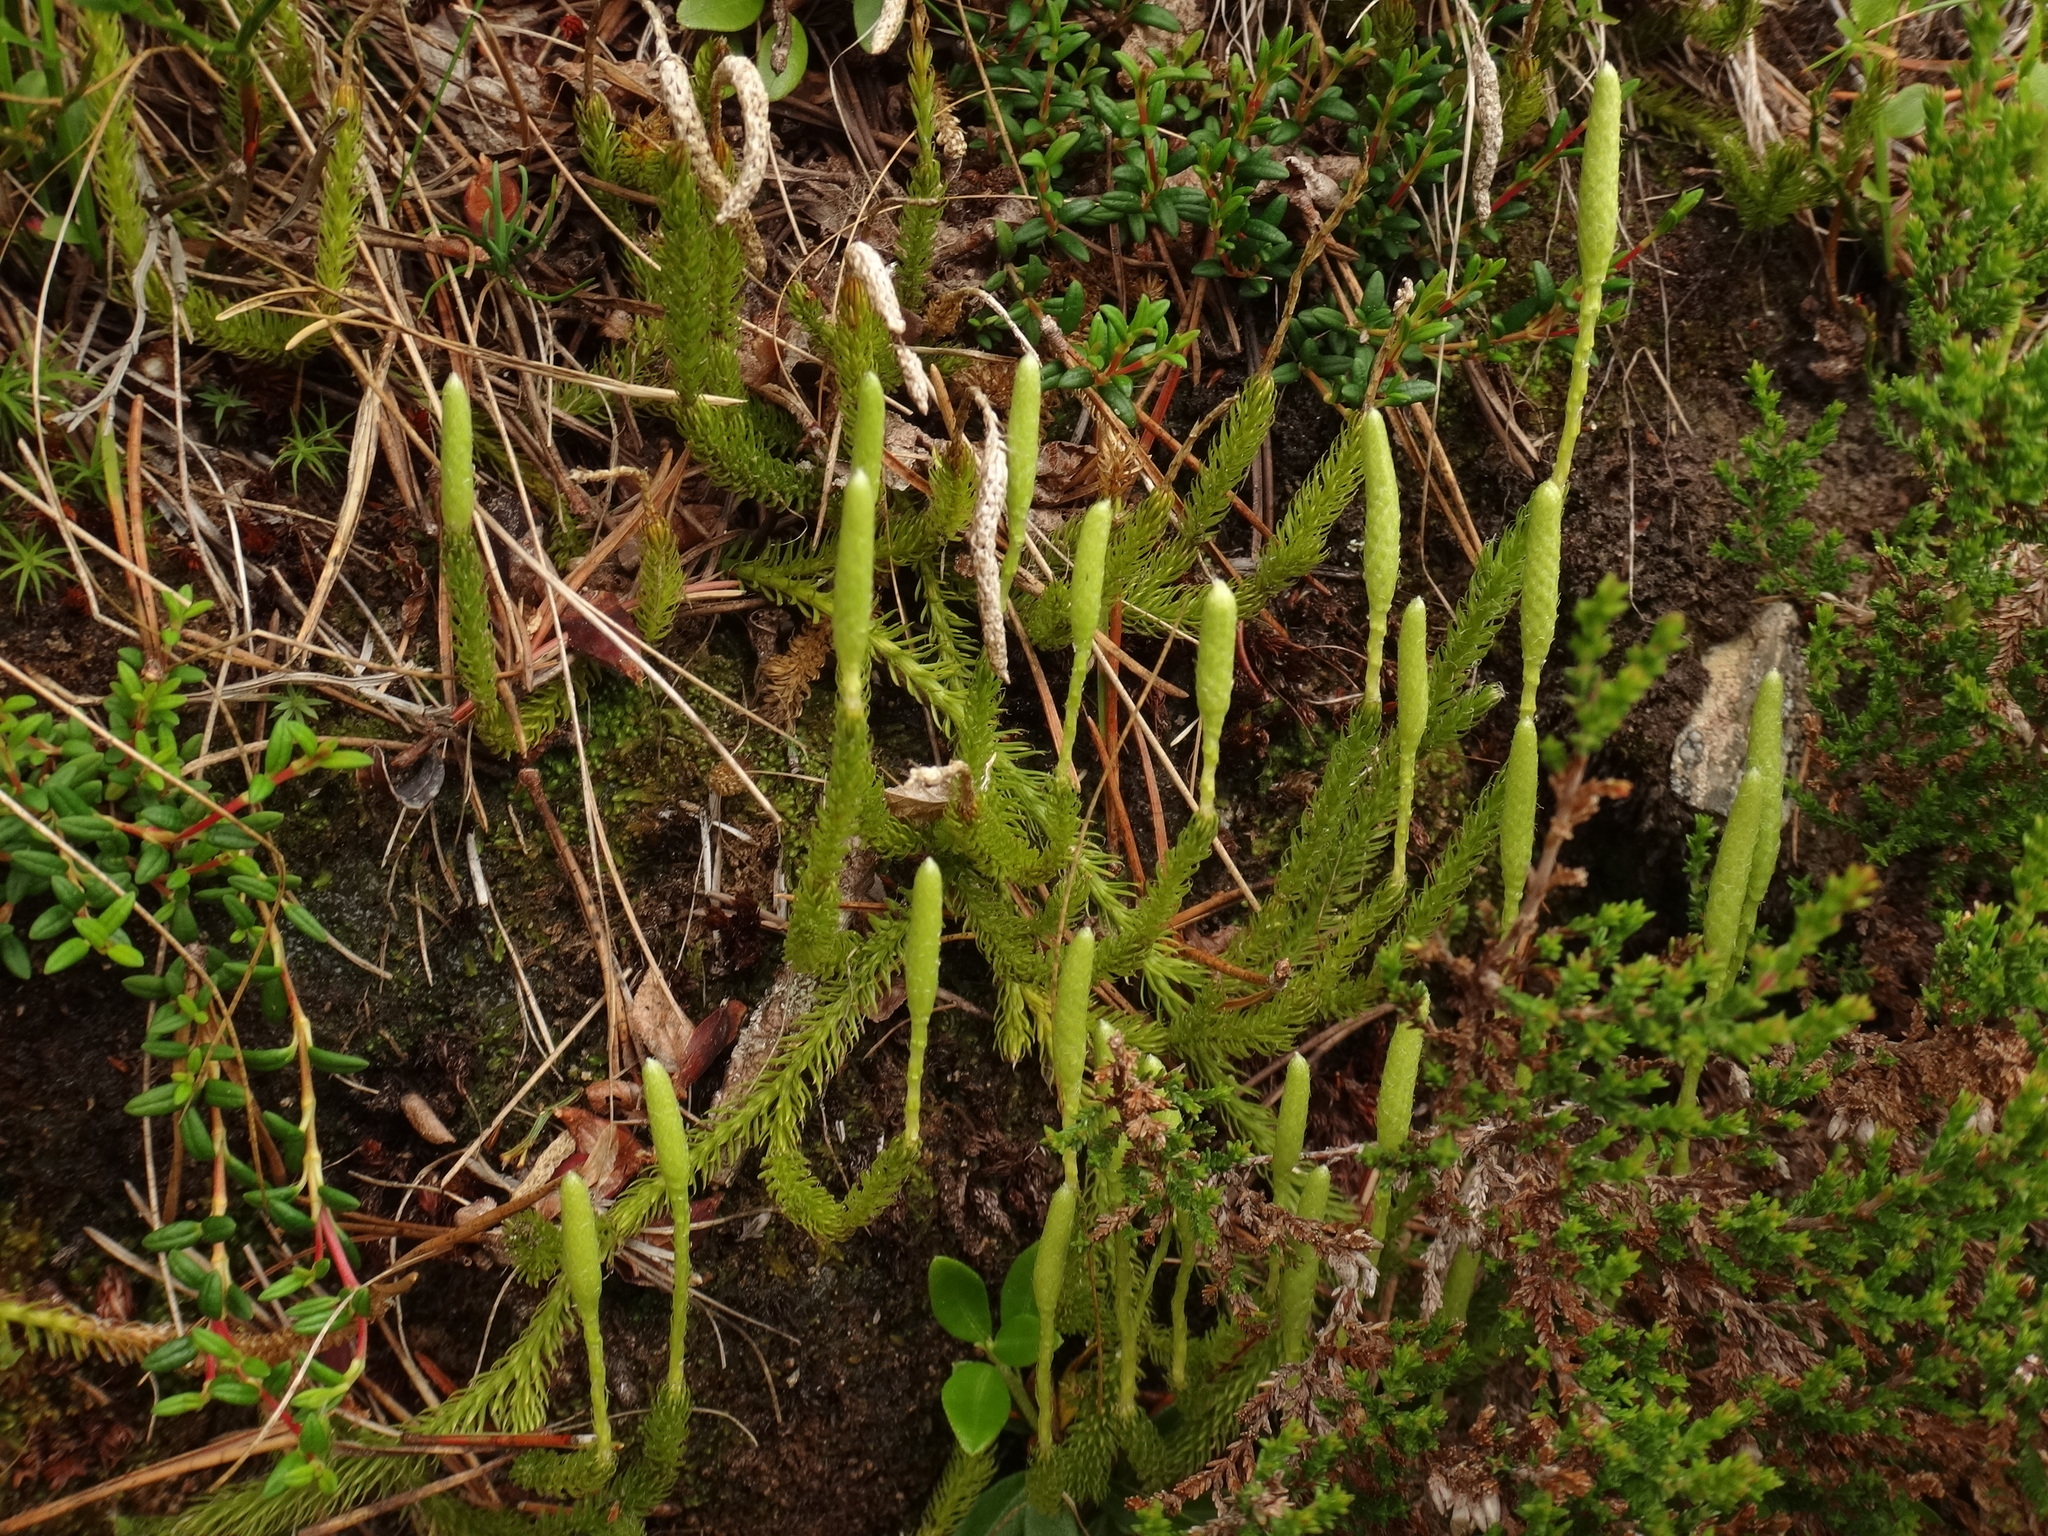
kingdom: Plantae
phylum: Tracheophyta
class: Lycopodiopsida
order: Lycopodiales
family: Lycopodiaceae
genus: Lycopodium
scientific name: Lycopodium clavatum
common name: Stag's-horn clubmoss
